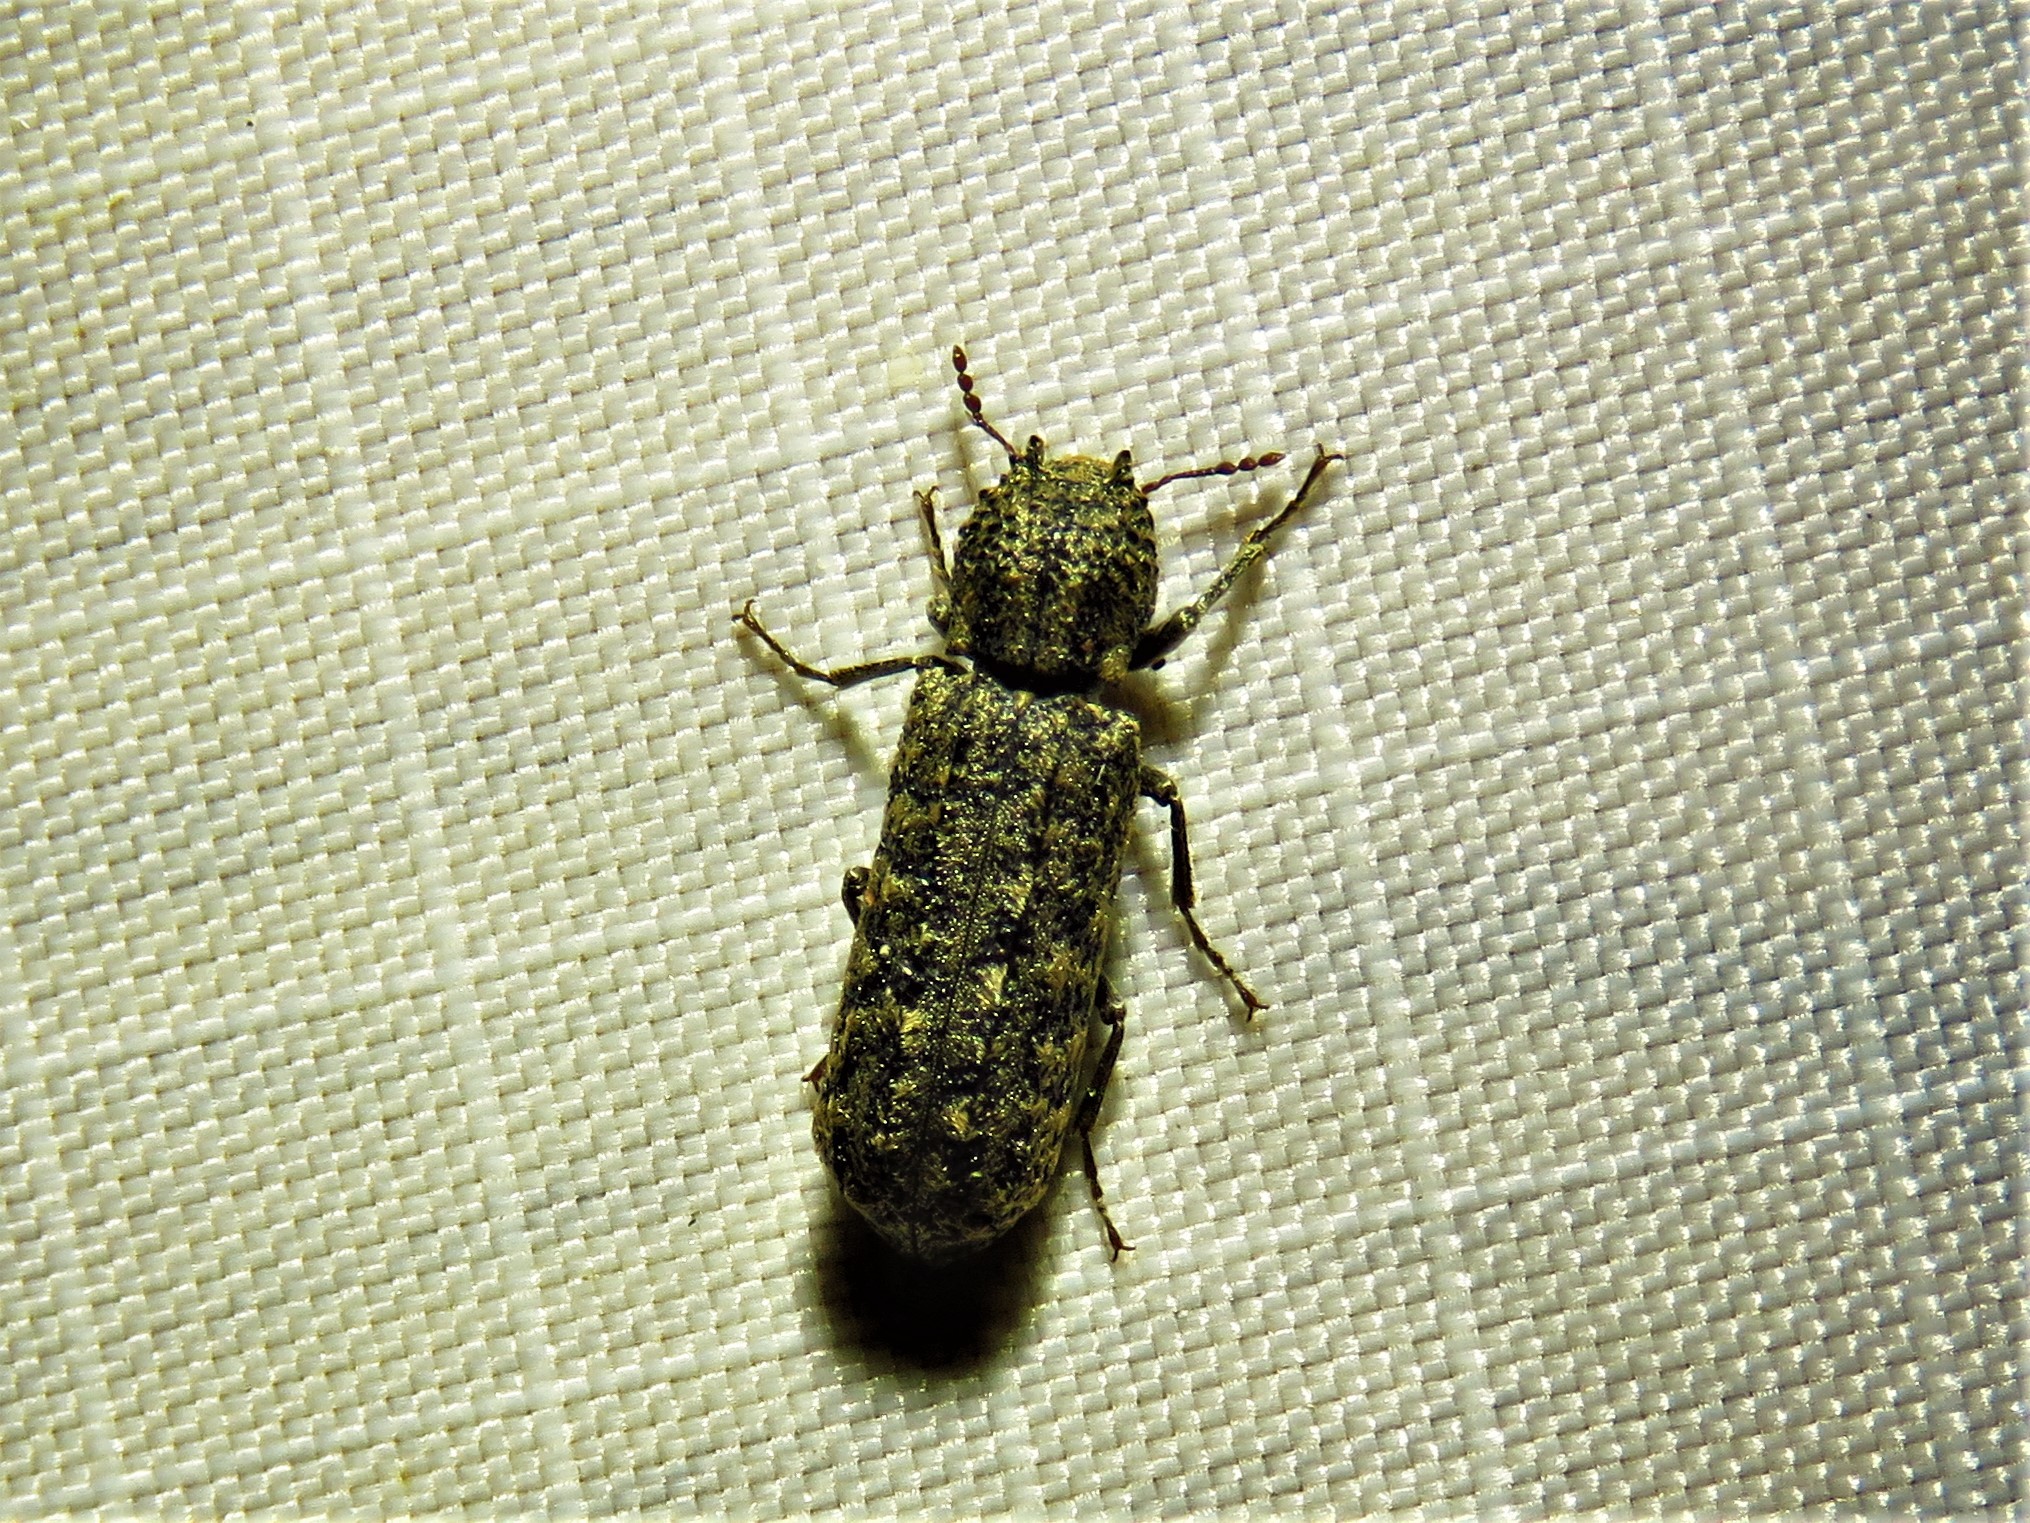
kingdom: Animalia
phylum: Arthropoda
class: Insecta
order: Coleoptera
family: Bostrichidae
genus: Lichenophanes
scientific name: Lichenophanes bicornis
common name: Two-horned powder-post beetle
